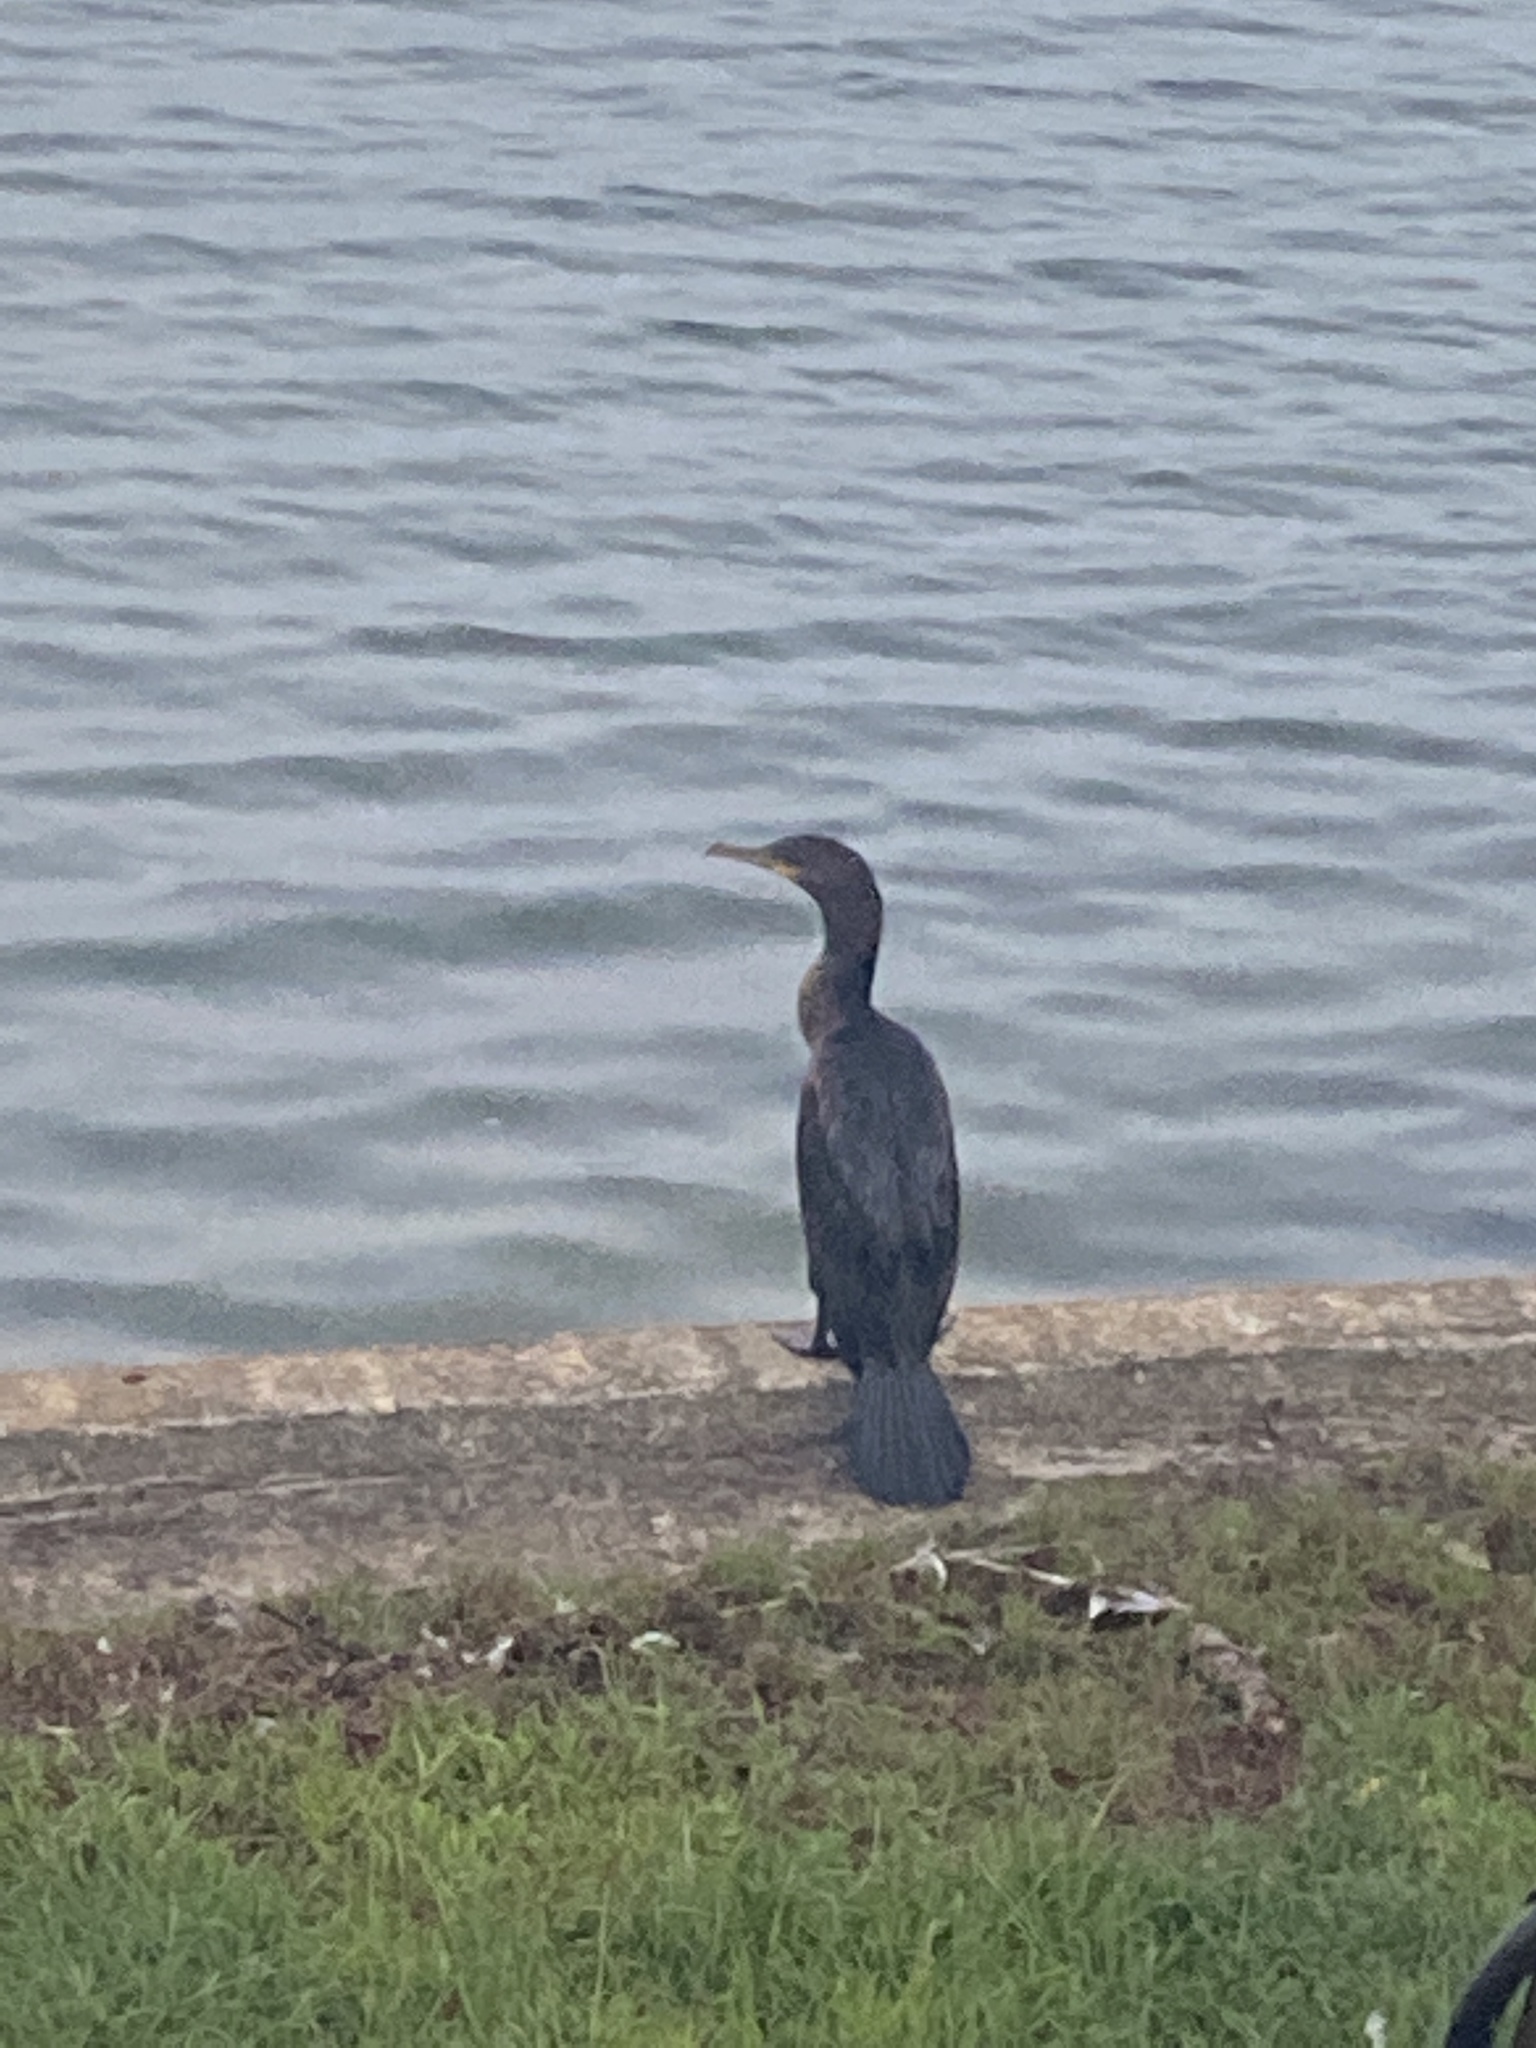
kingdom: Animalia
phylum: Chordata
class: Aves
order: Suliformes
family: Phalacrocoracidae
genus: Phalacrocorax
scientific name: Phalacrocorax auritus
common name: Double-crested cormorant
